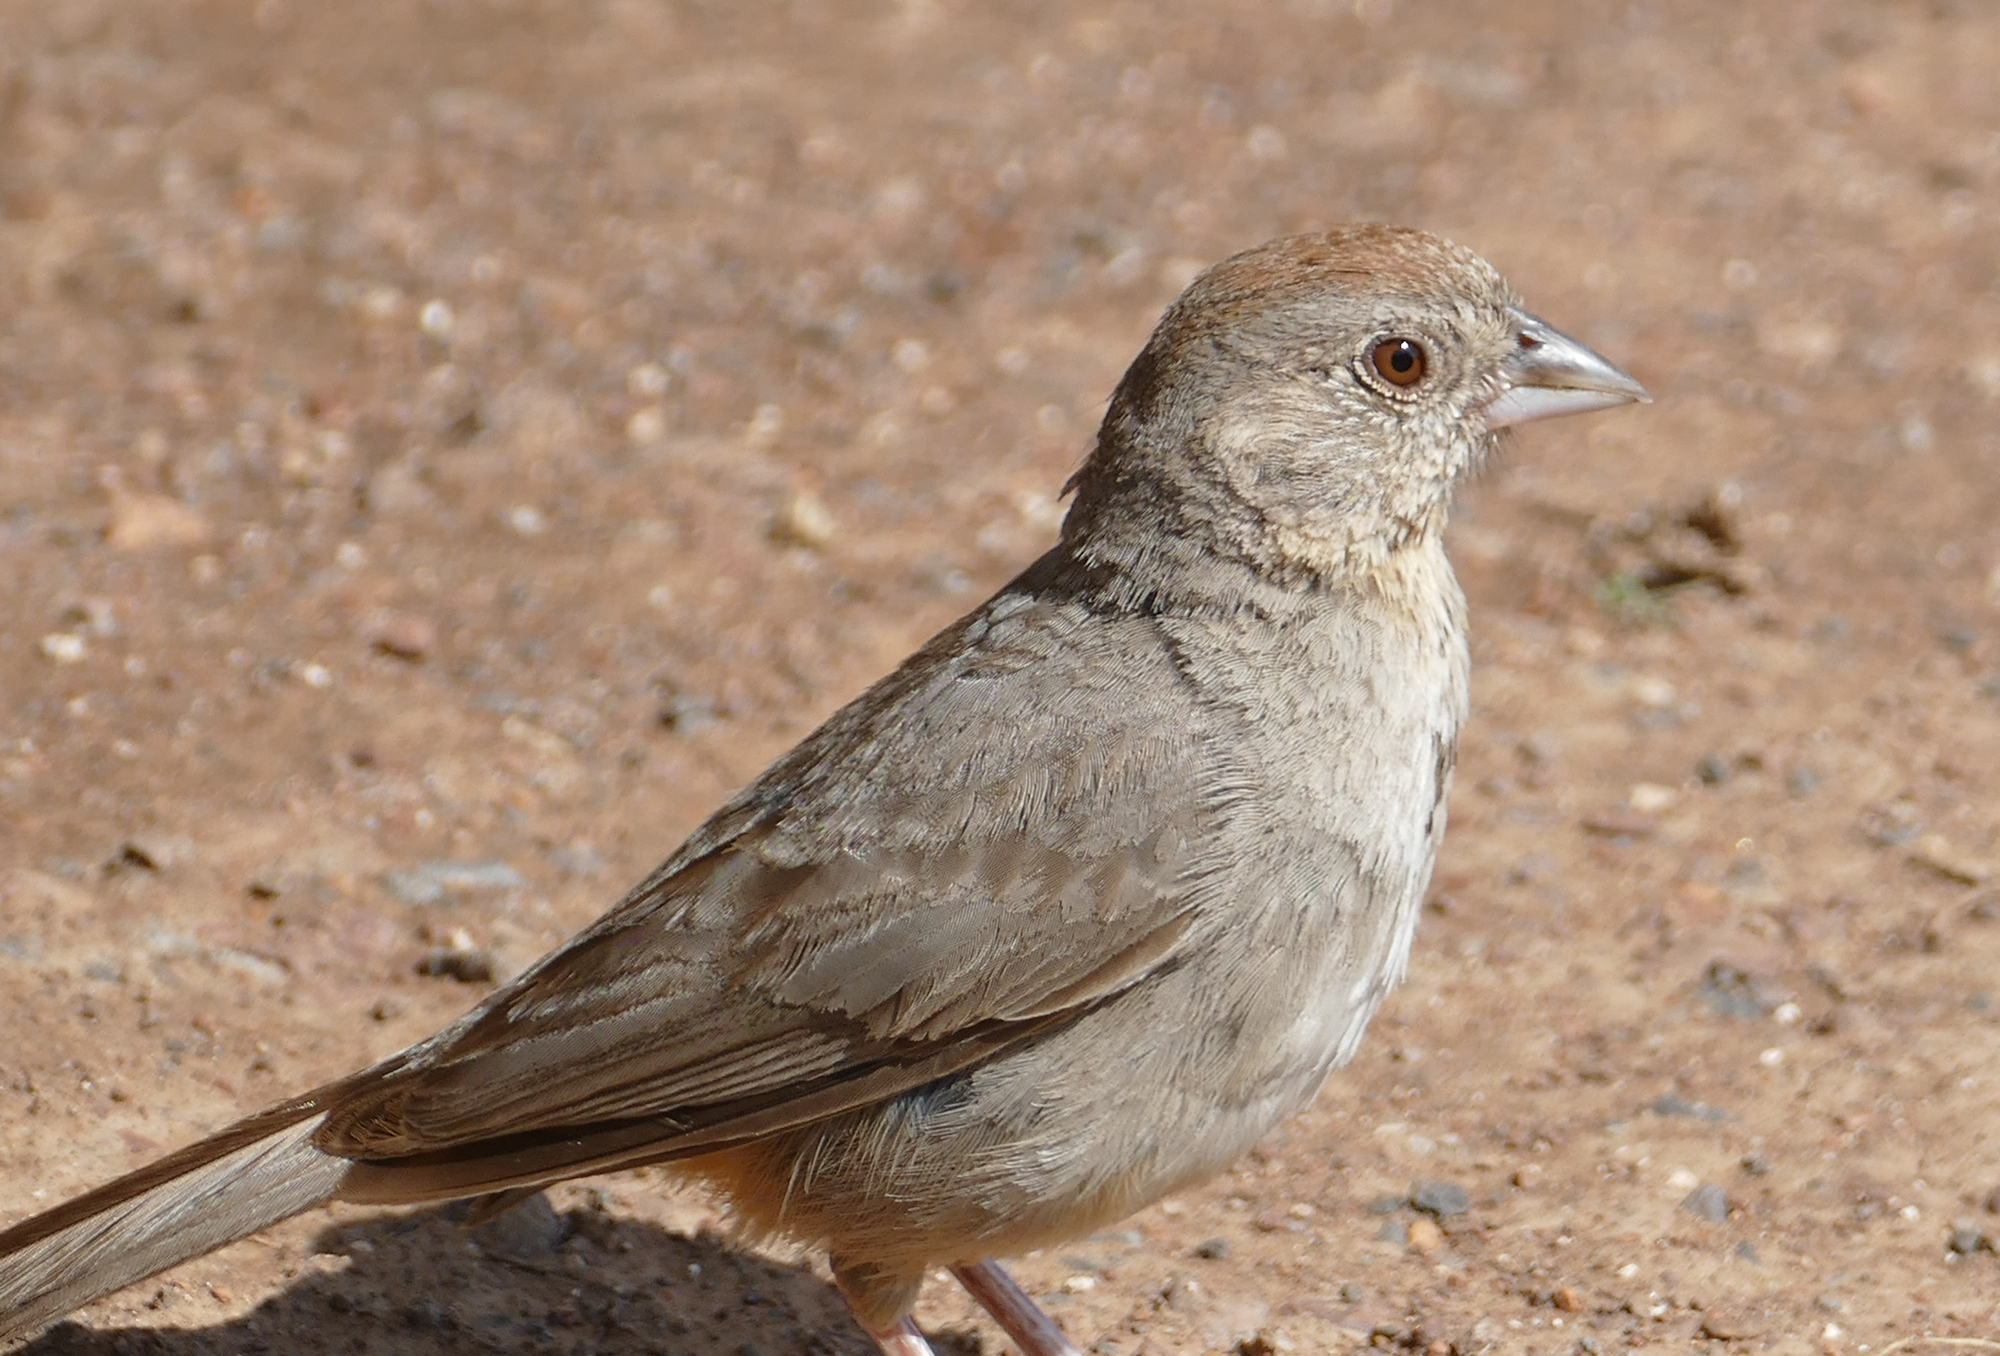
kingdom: Animalia
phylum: Chordata
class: Aves
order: Passeriformes
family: Passerellidae
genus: Melozone
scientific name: Melozone fusca
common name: Canyon towhee
